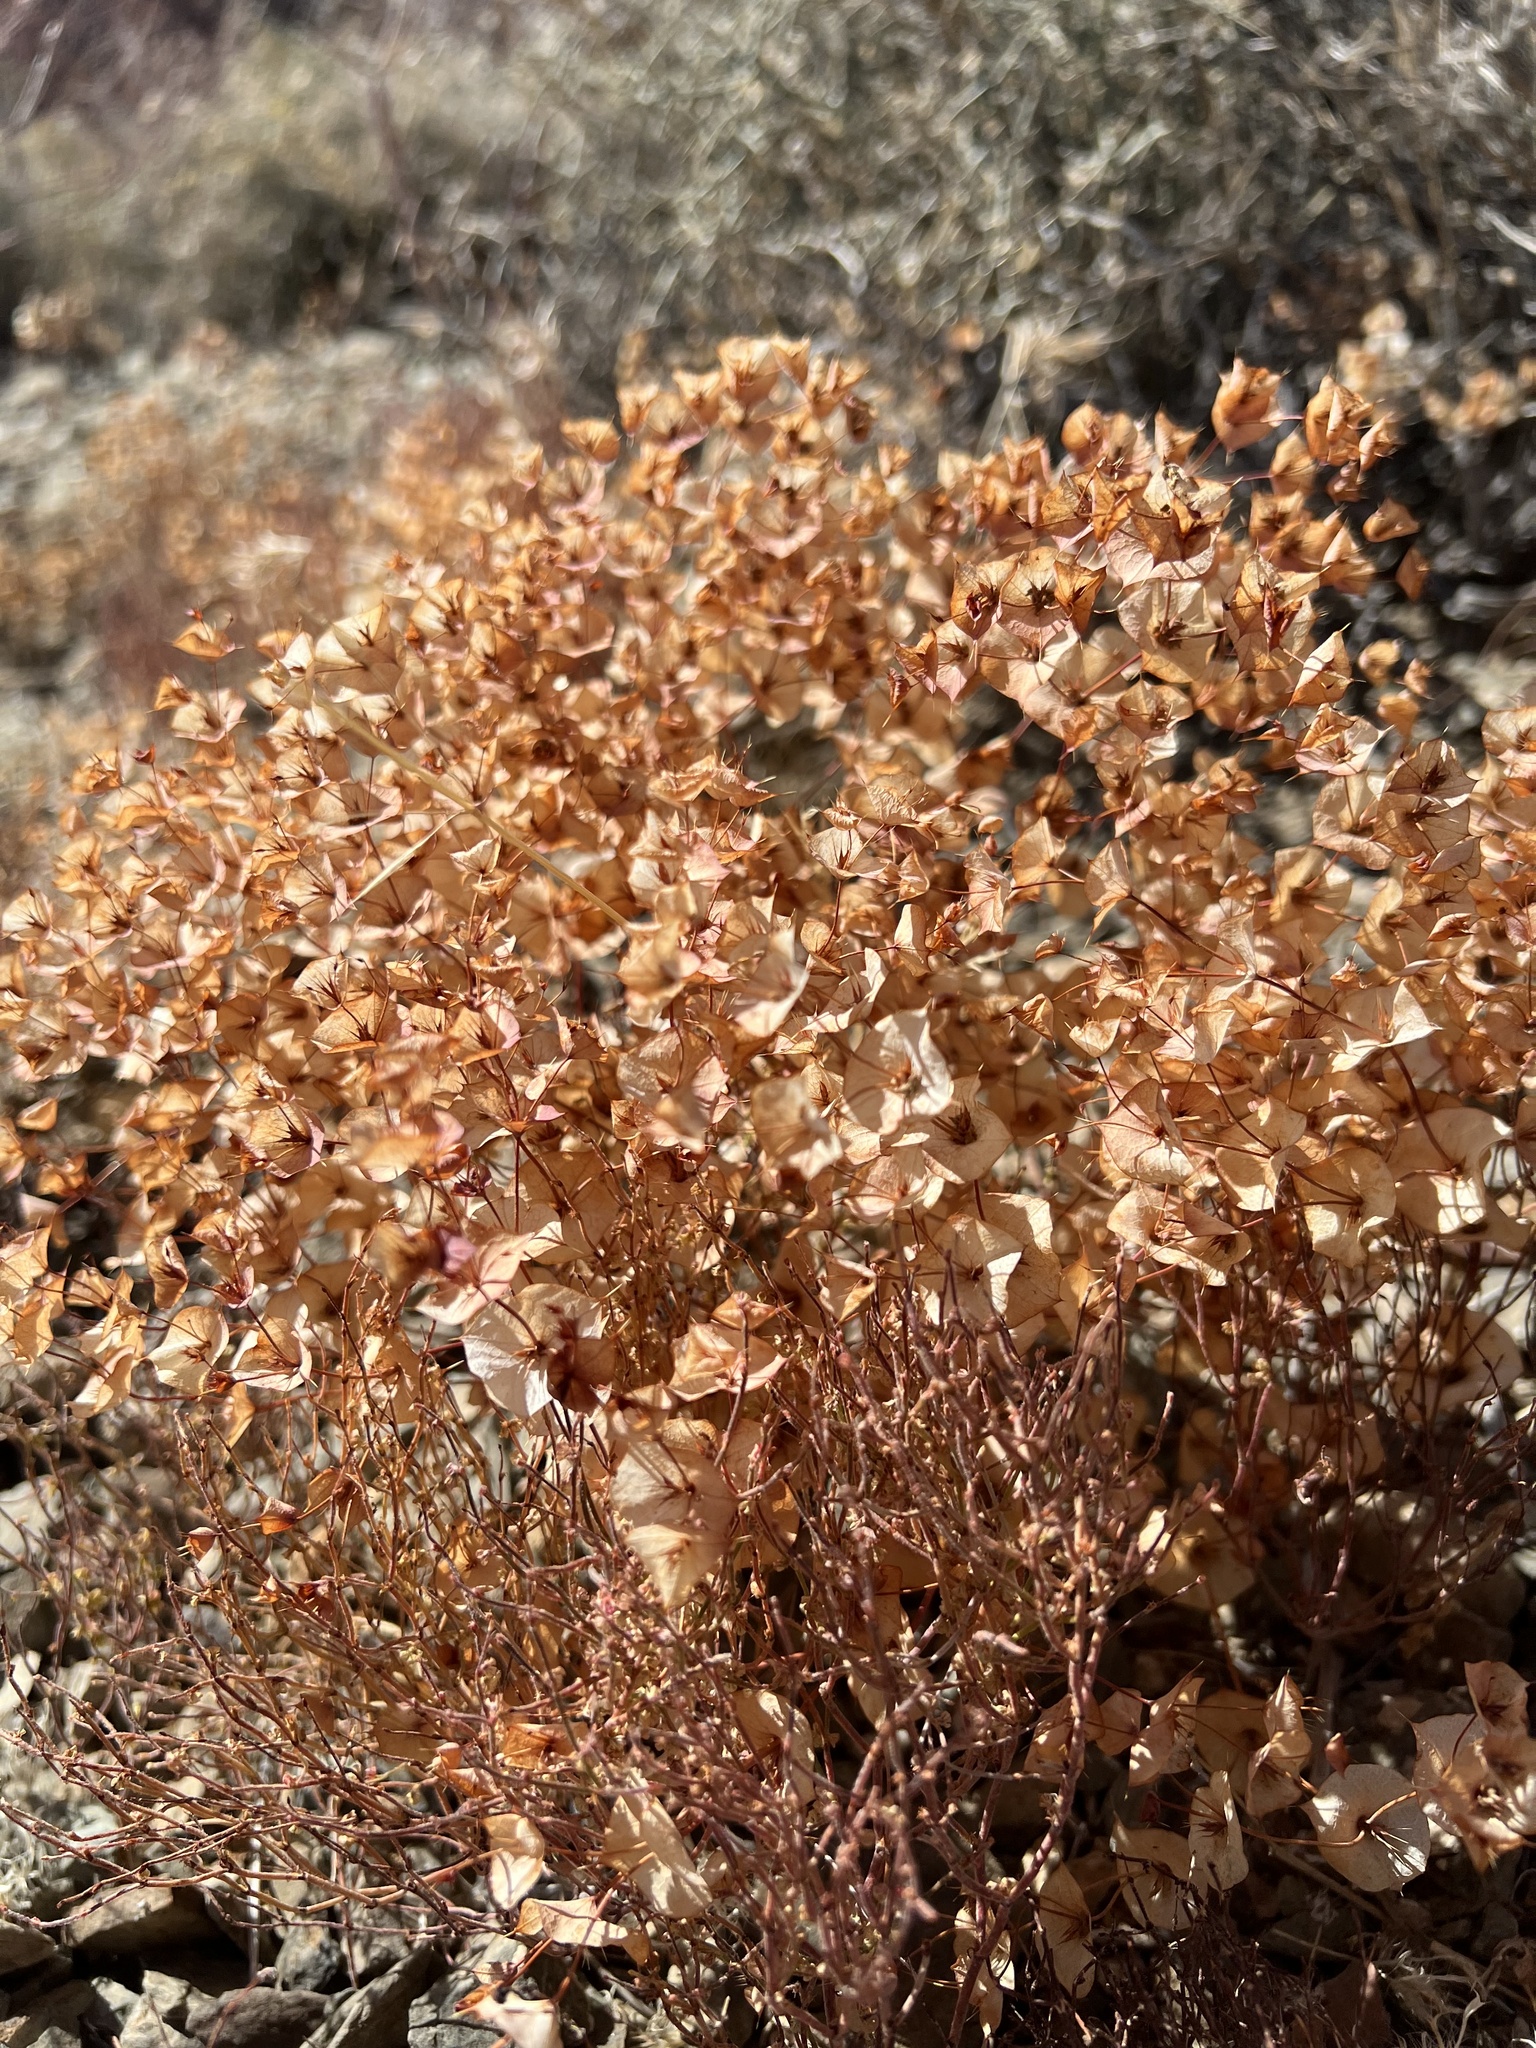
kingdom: Plantae
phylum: Tracheophyta
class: Magnoliopsida
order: Caryophyllales
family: Polygonaceae
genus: Oxytheca
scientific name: Oxytheca perfoliata
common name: Round-leaf puncturebract
